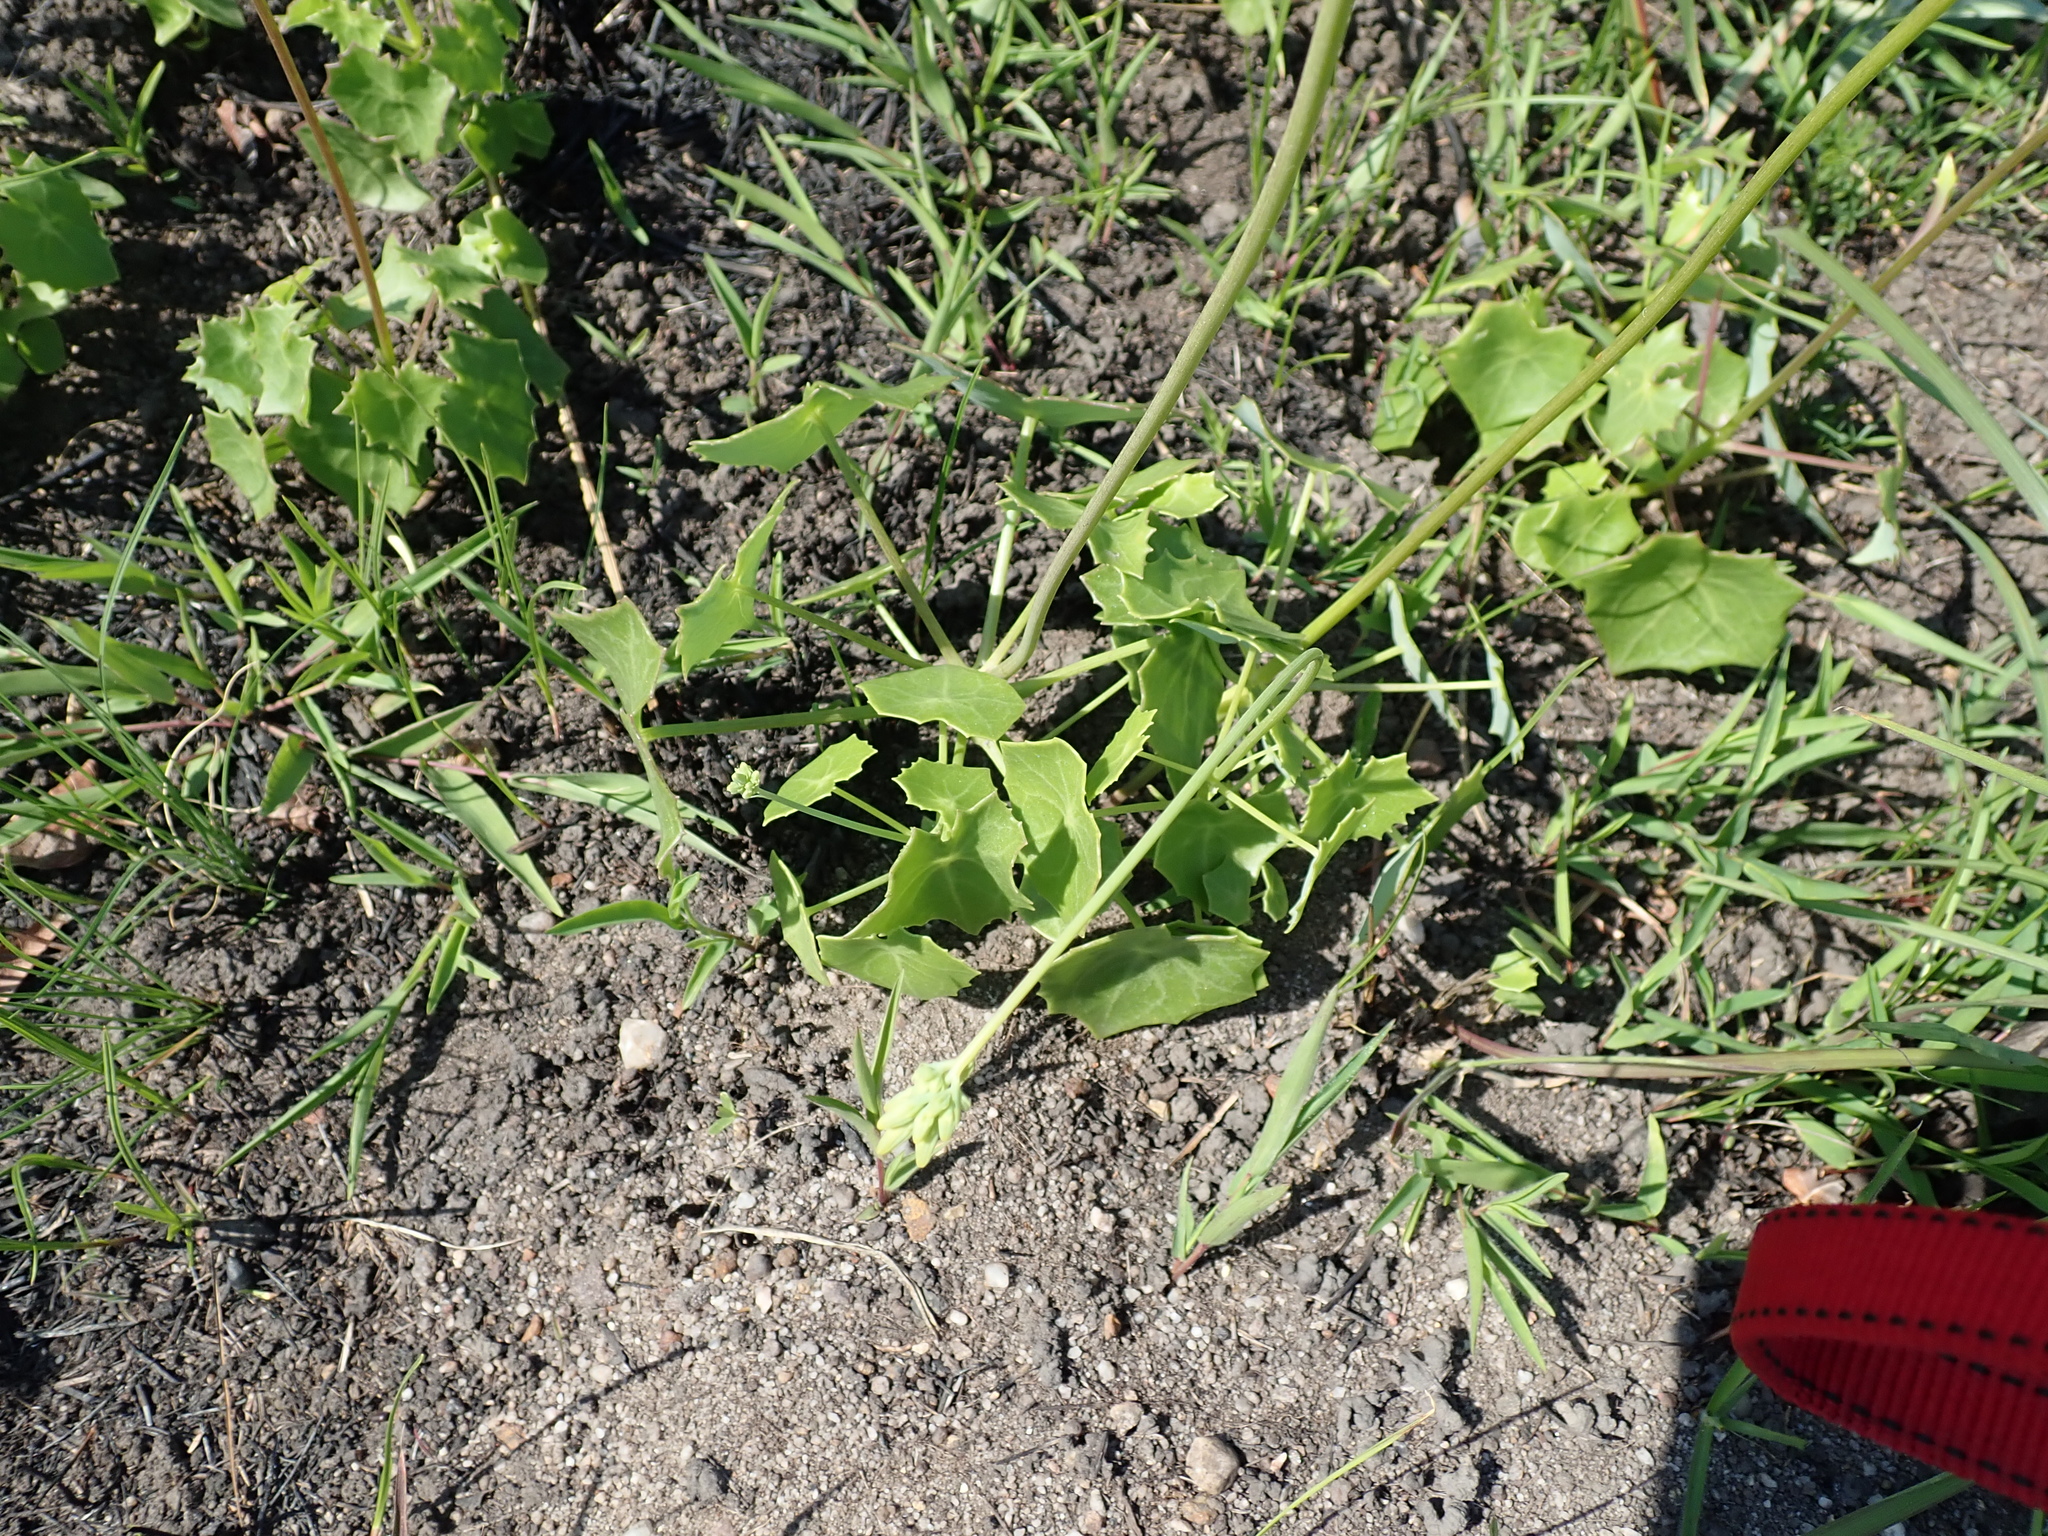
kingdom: Plantae
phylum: Tracheophyta
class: Magnoliopsida
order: Asterales
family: Asteraceae
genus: Senecio
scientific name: Senecio oxyriifolius
